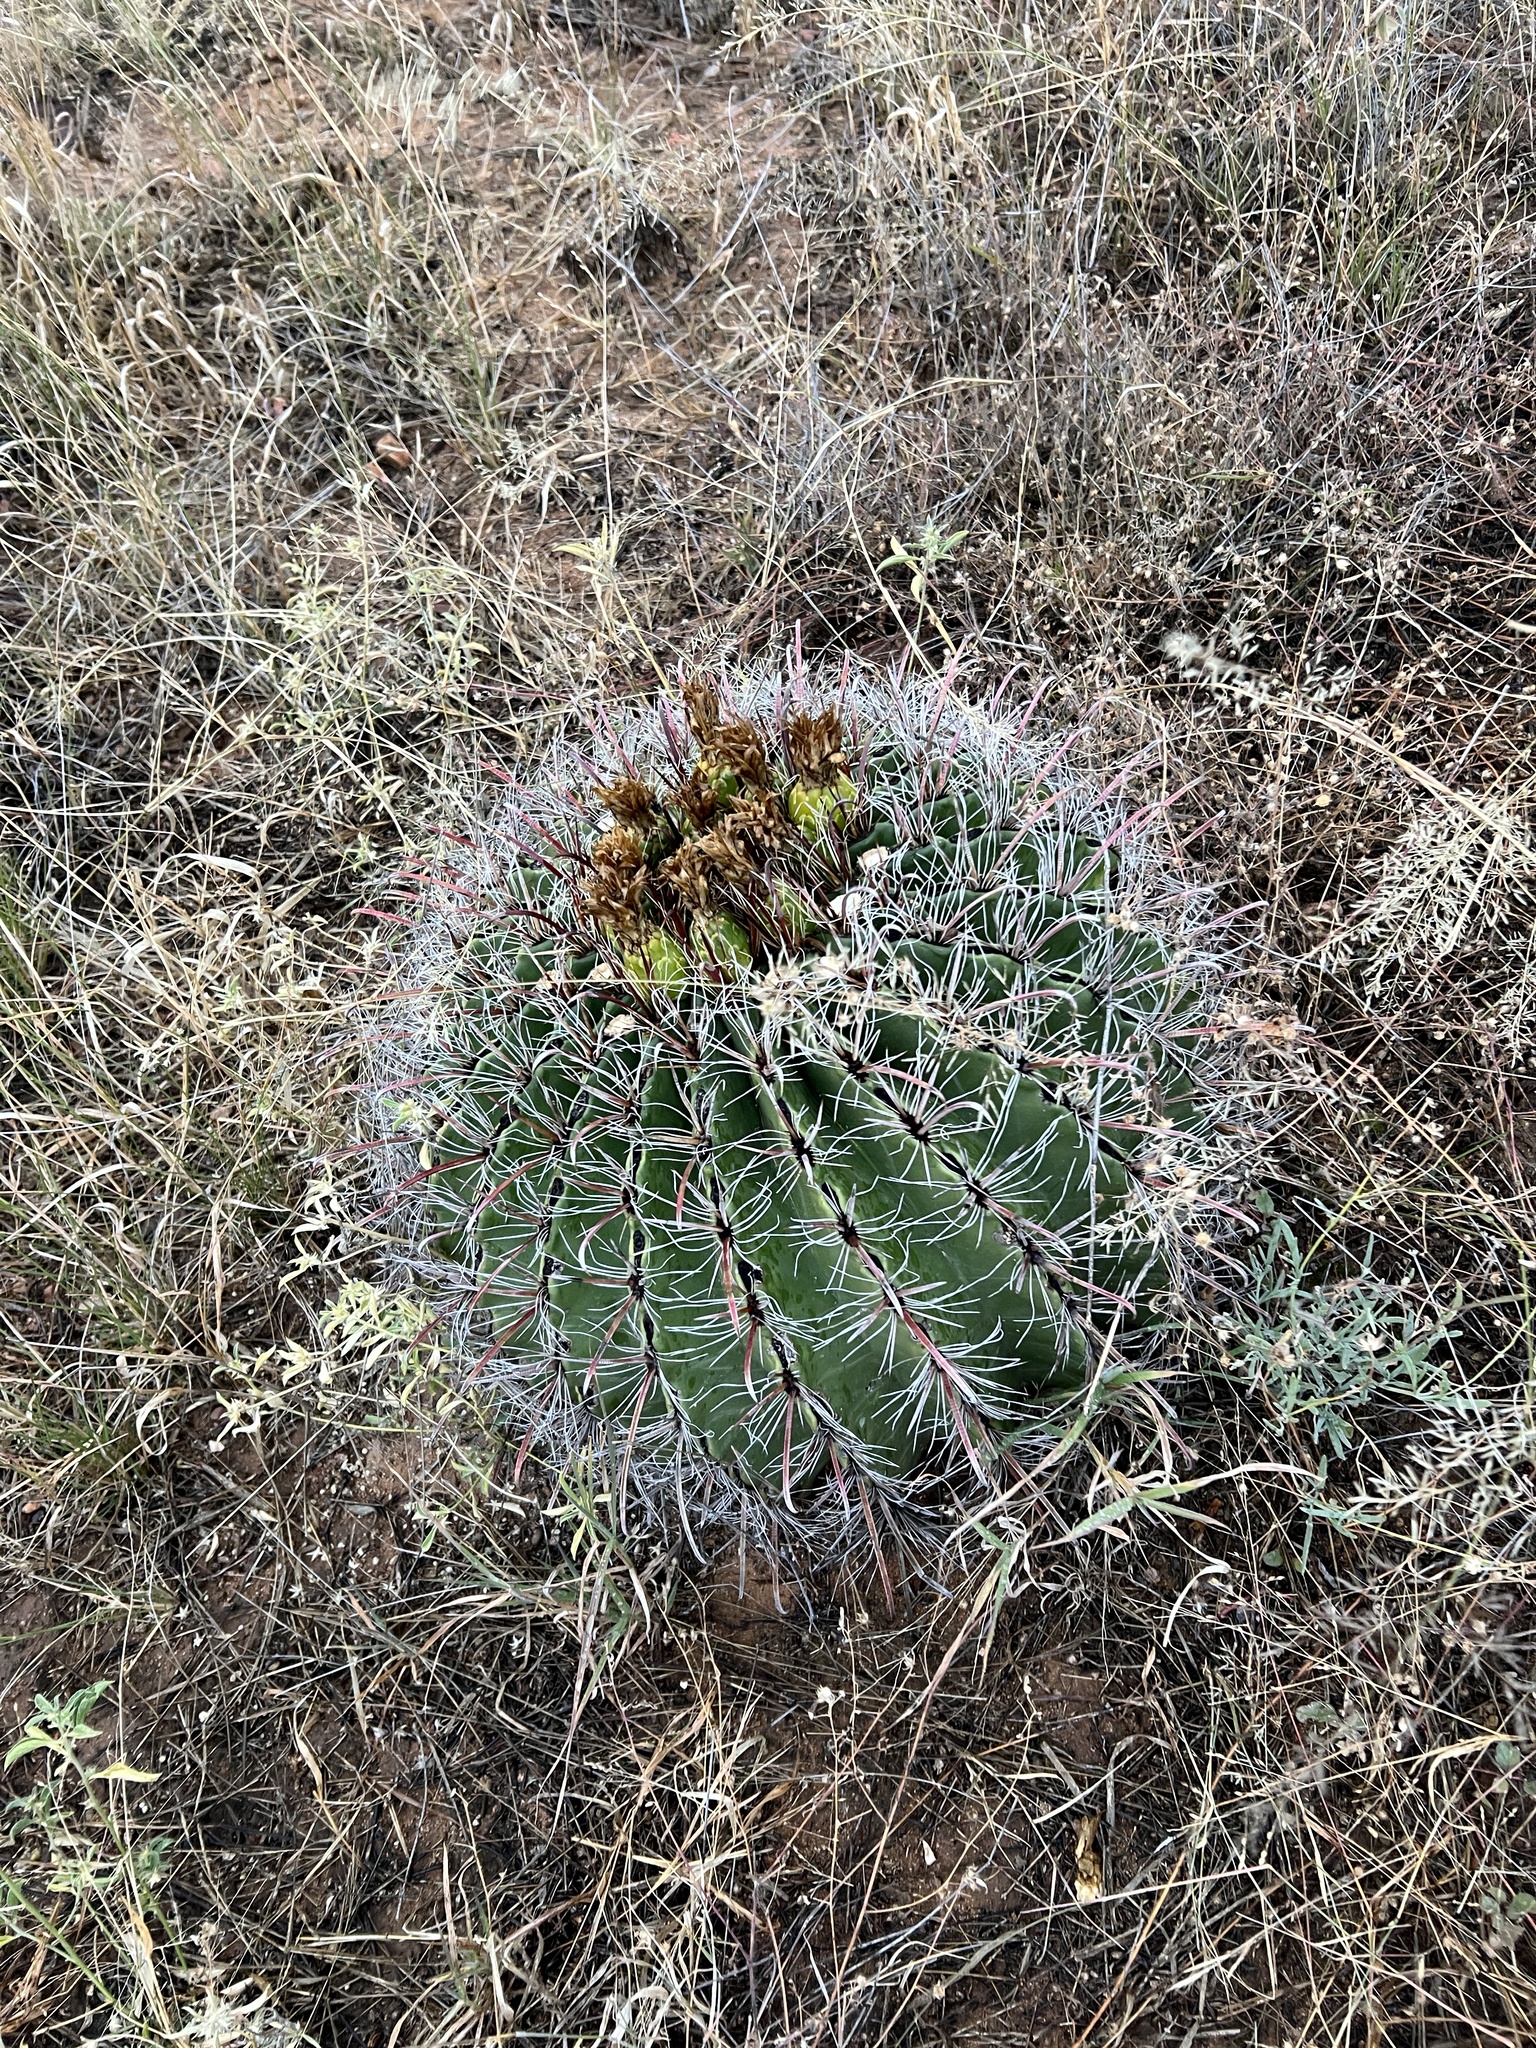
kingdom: Plantae
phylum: Tracheophyta
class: Magnoliopsida
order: Caryophyllales
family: Cactaceae
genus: Ferocactus
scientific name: Ferocactus wislizeni
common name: Candy barrel cactus
